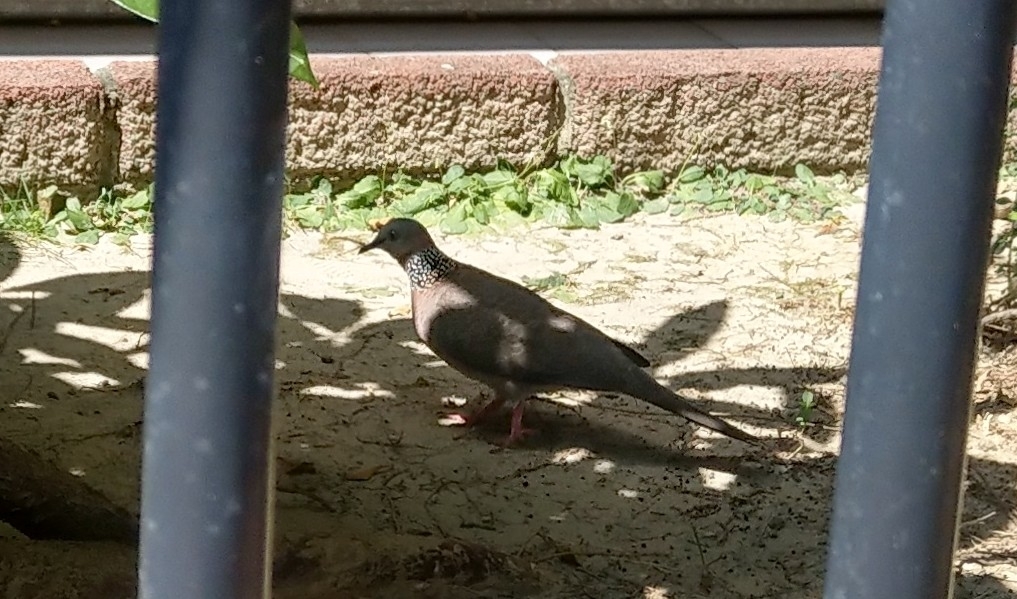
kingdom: Animalia
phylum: Chordata
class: Aves
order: Columbiformes
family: Columbidae
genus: Spilopelia
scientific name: Spilopelia chinensis
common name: Spotted dove
